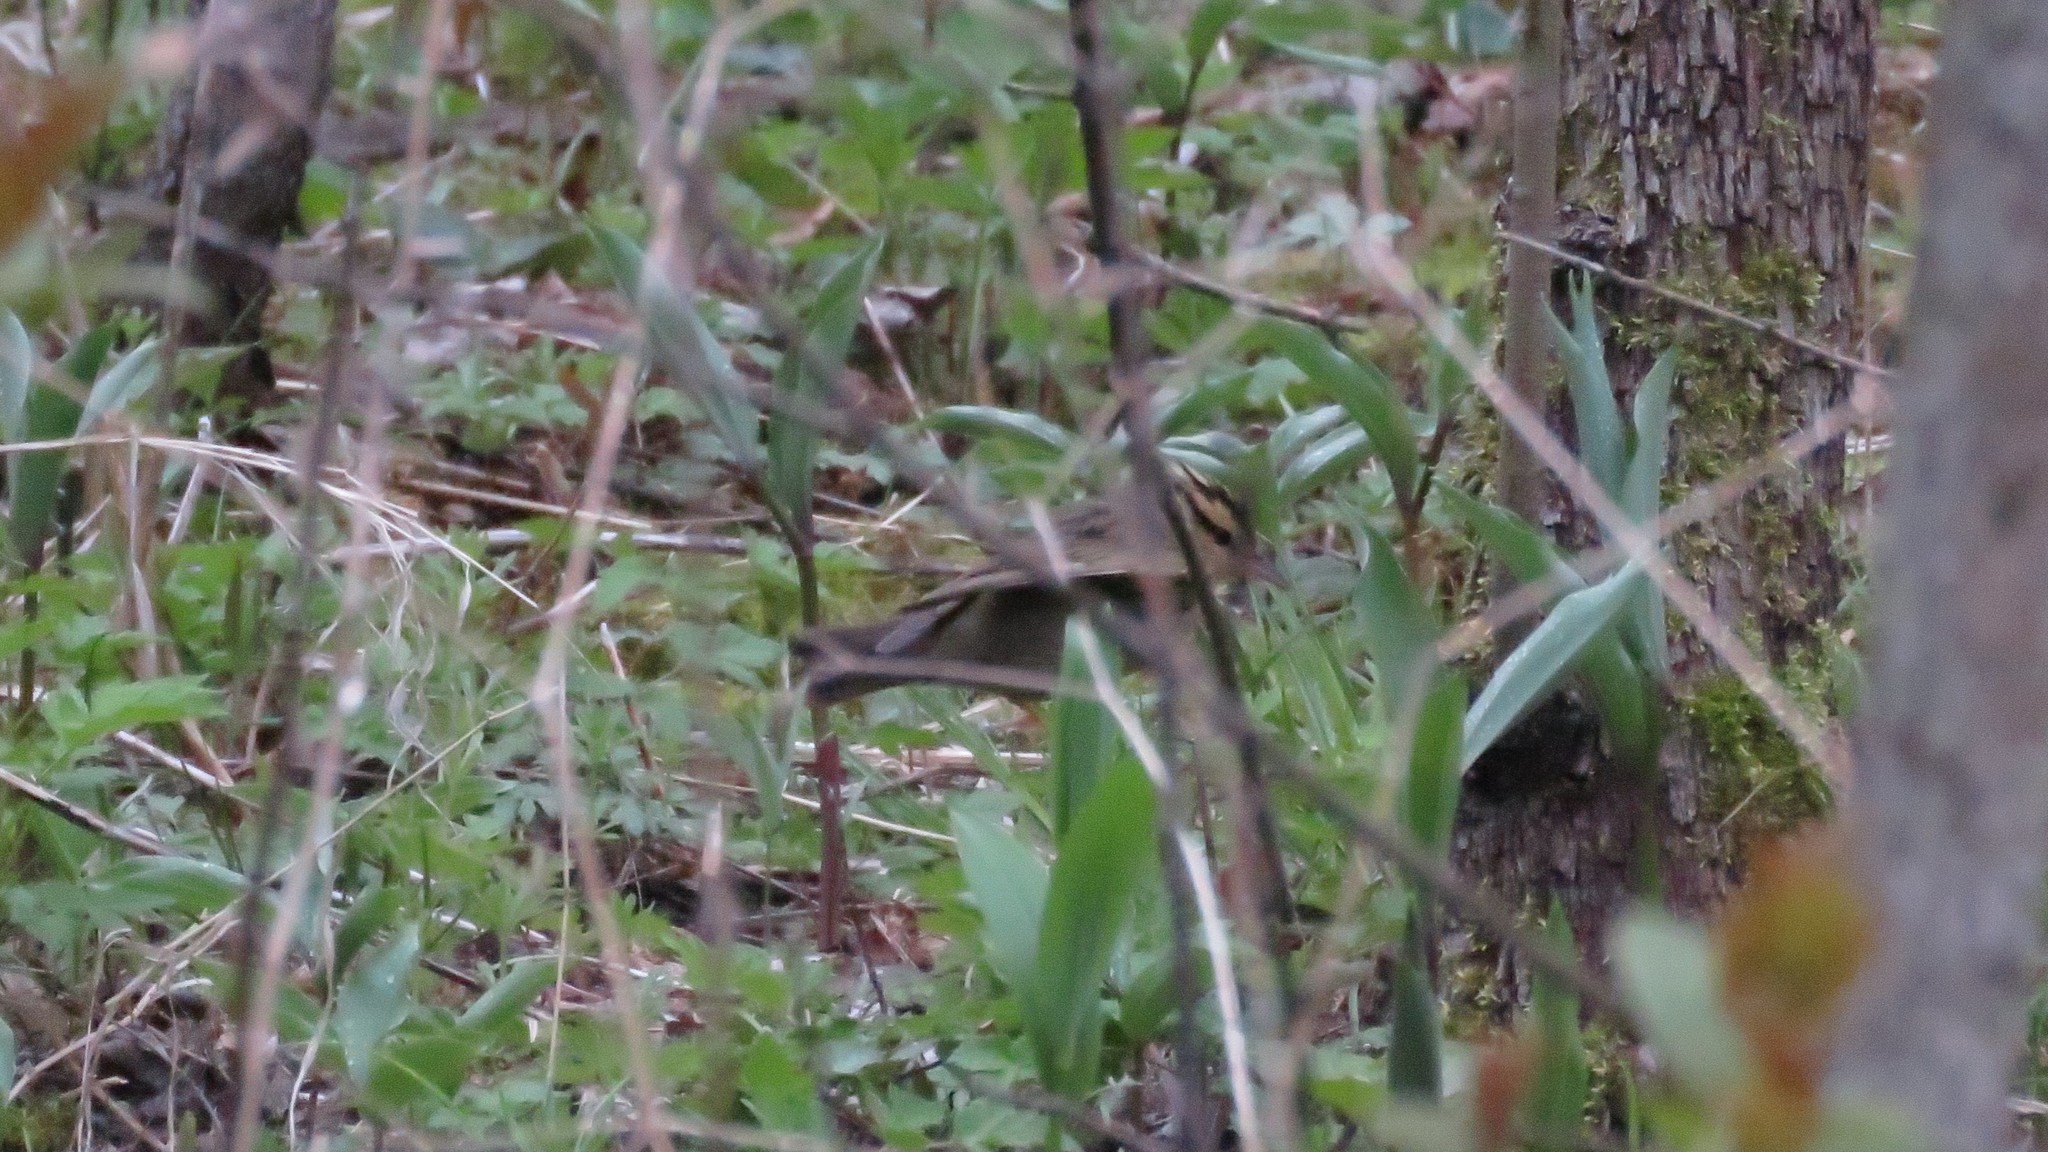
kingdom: Animalia
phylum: Chordata
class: Aves
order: Passeriformes
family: Parulidae
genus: Helmitheros
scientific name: Helmitheros vermivorum
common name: Worm-eating warbler
